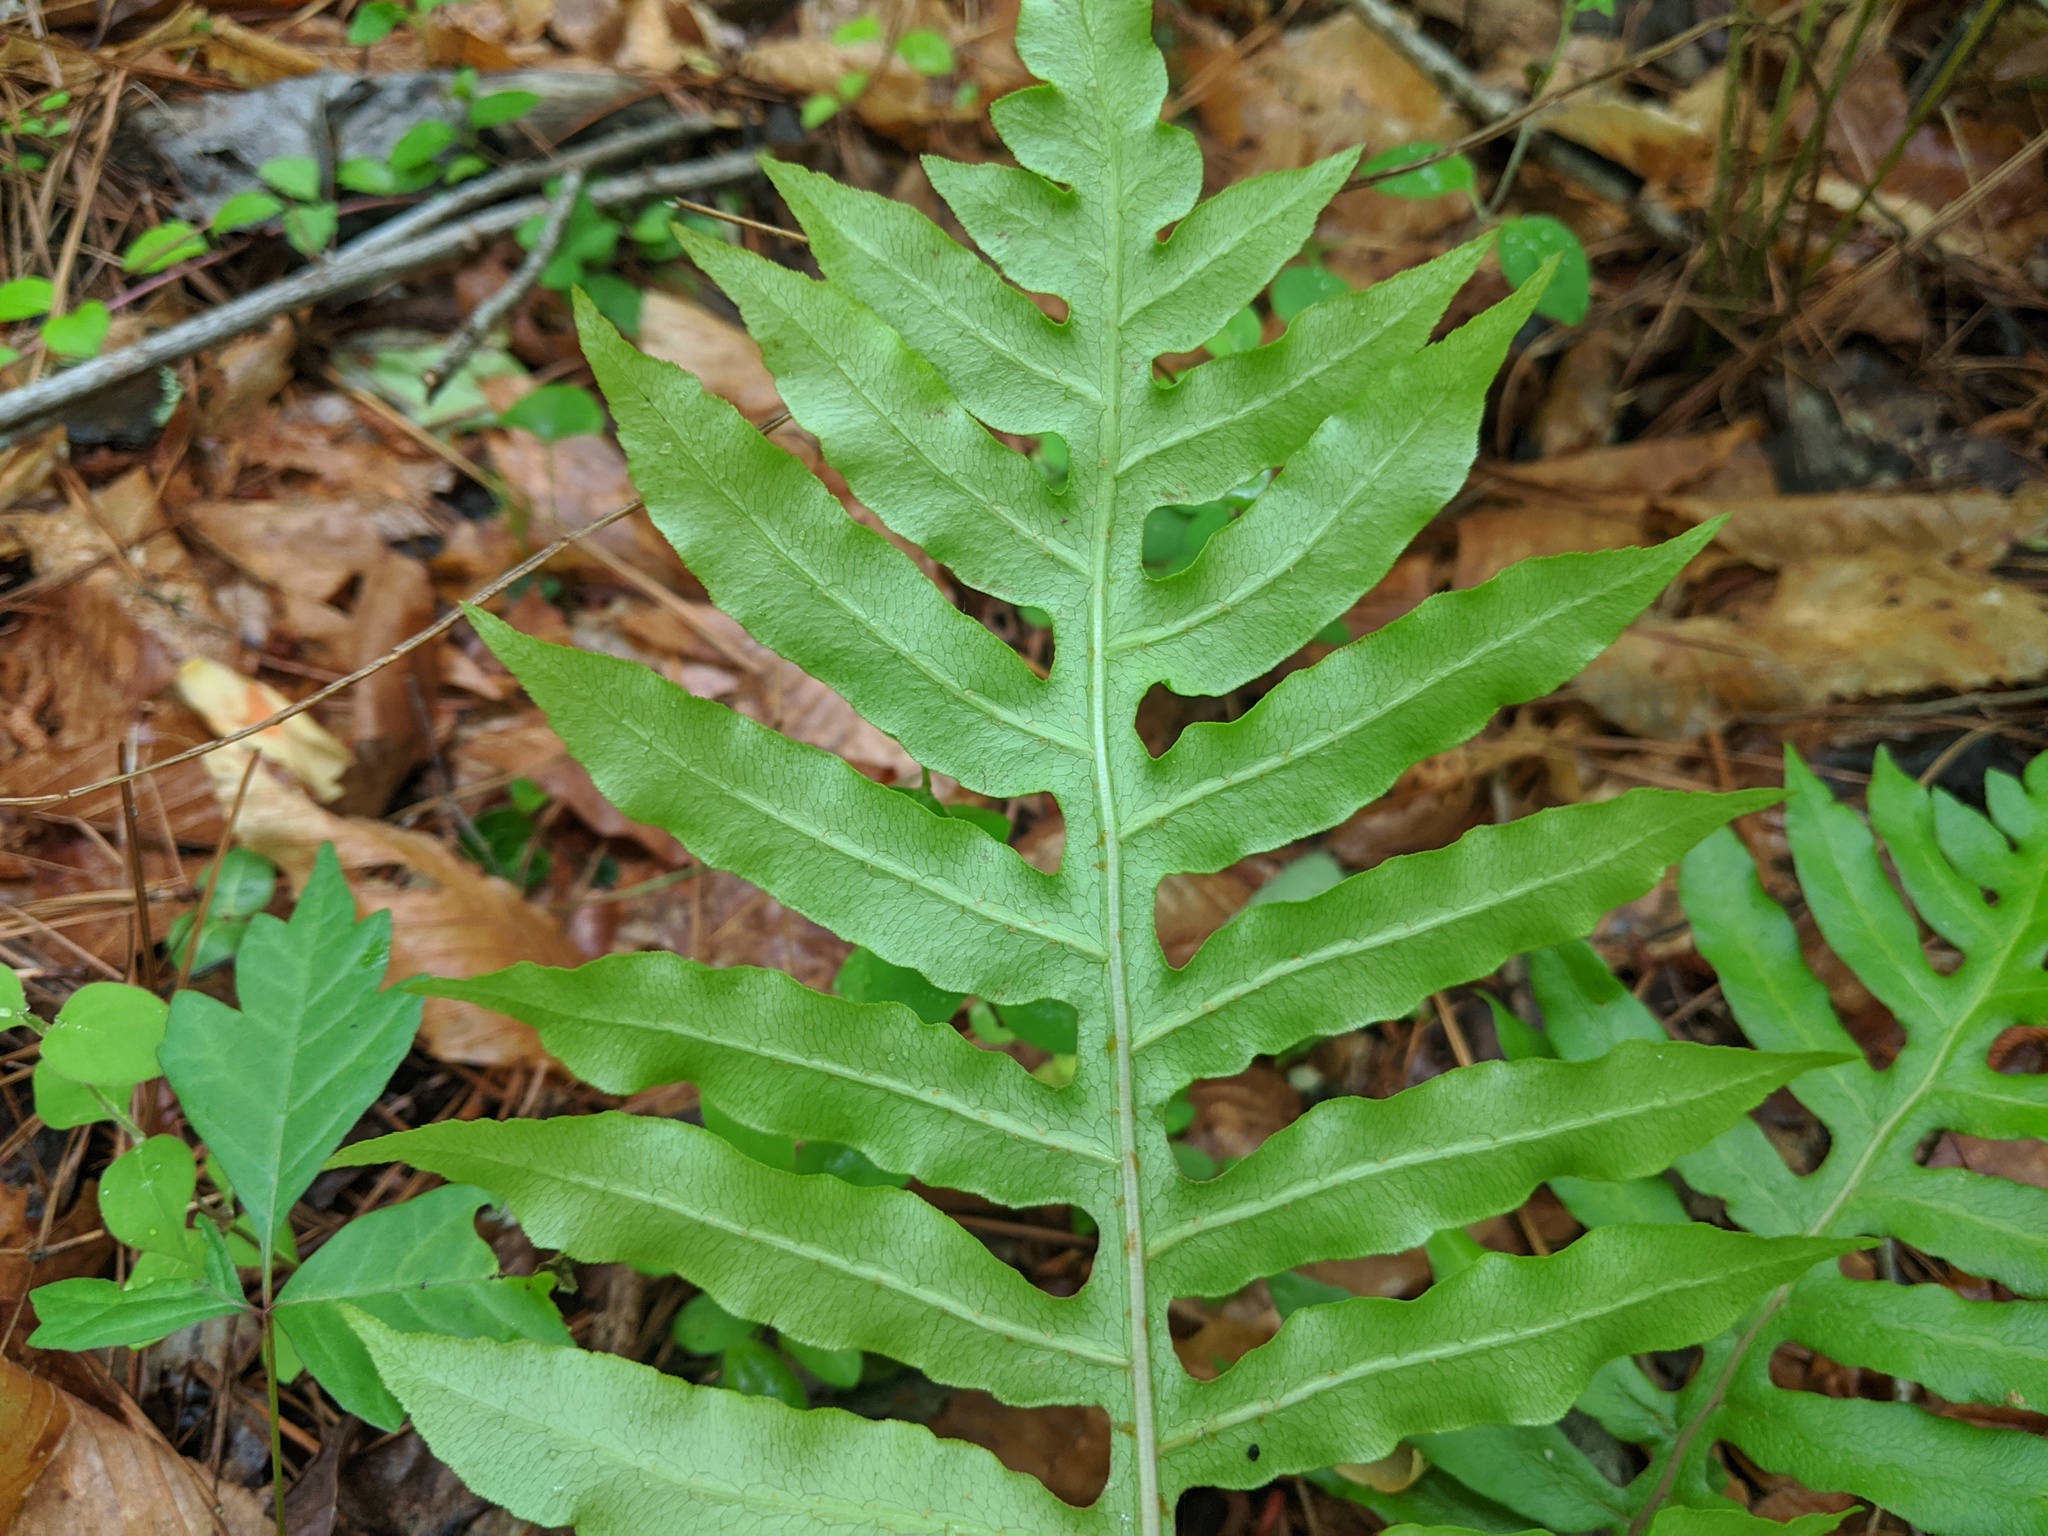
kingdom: Plantae
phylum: Tracheophyta
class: Polypodiopsida
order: Polypodiales
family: Blechnaceae
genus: Lorinseria
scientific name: Lorinseria areolata
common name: Dwarf chain fern
